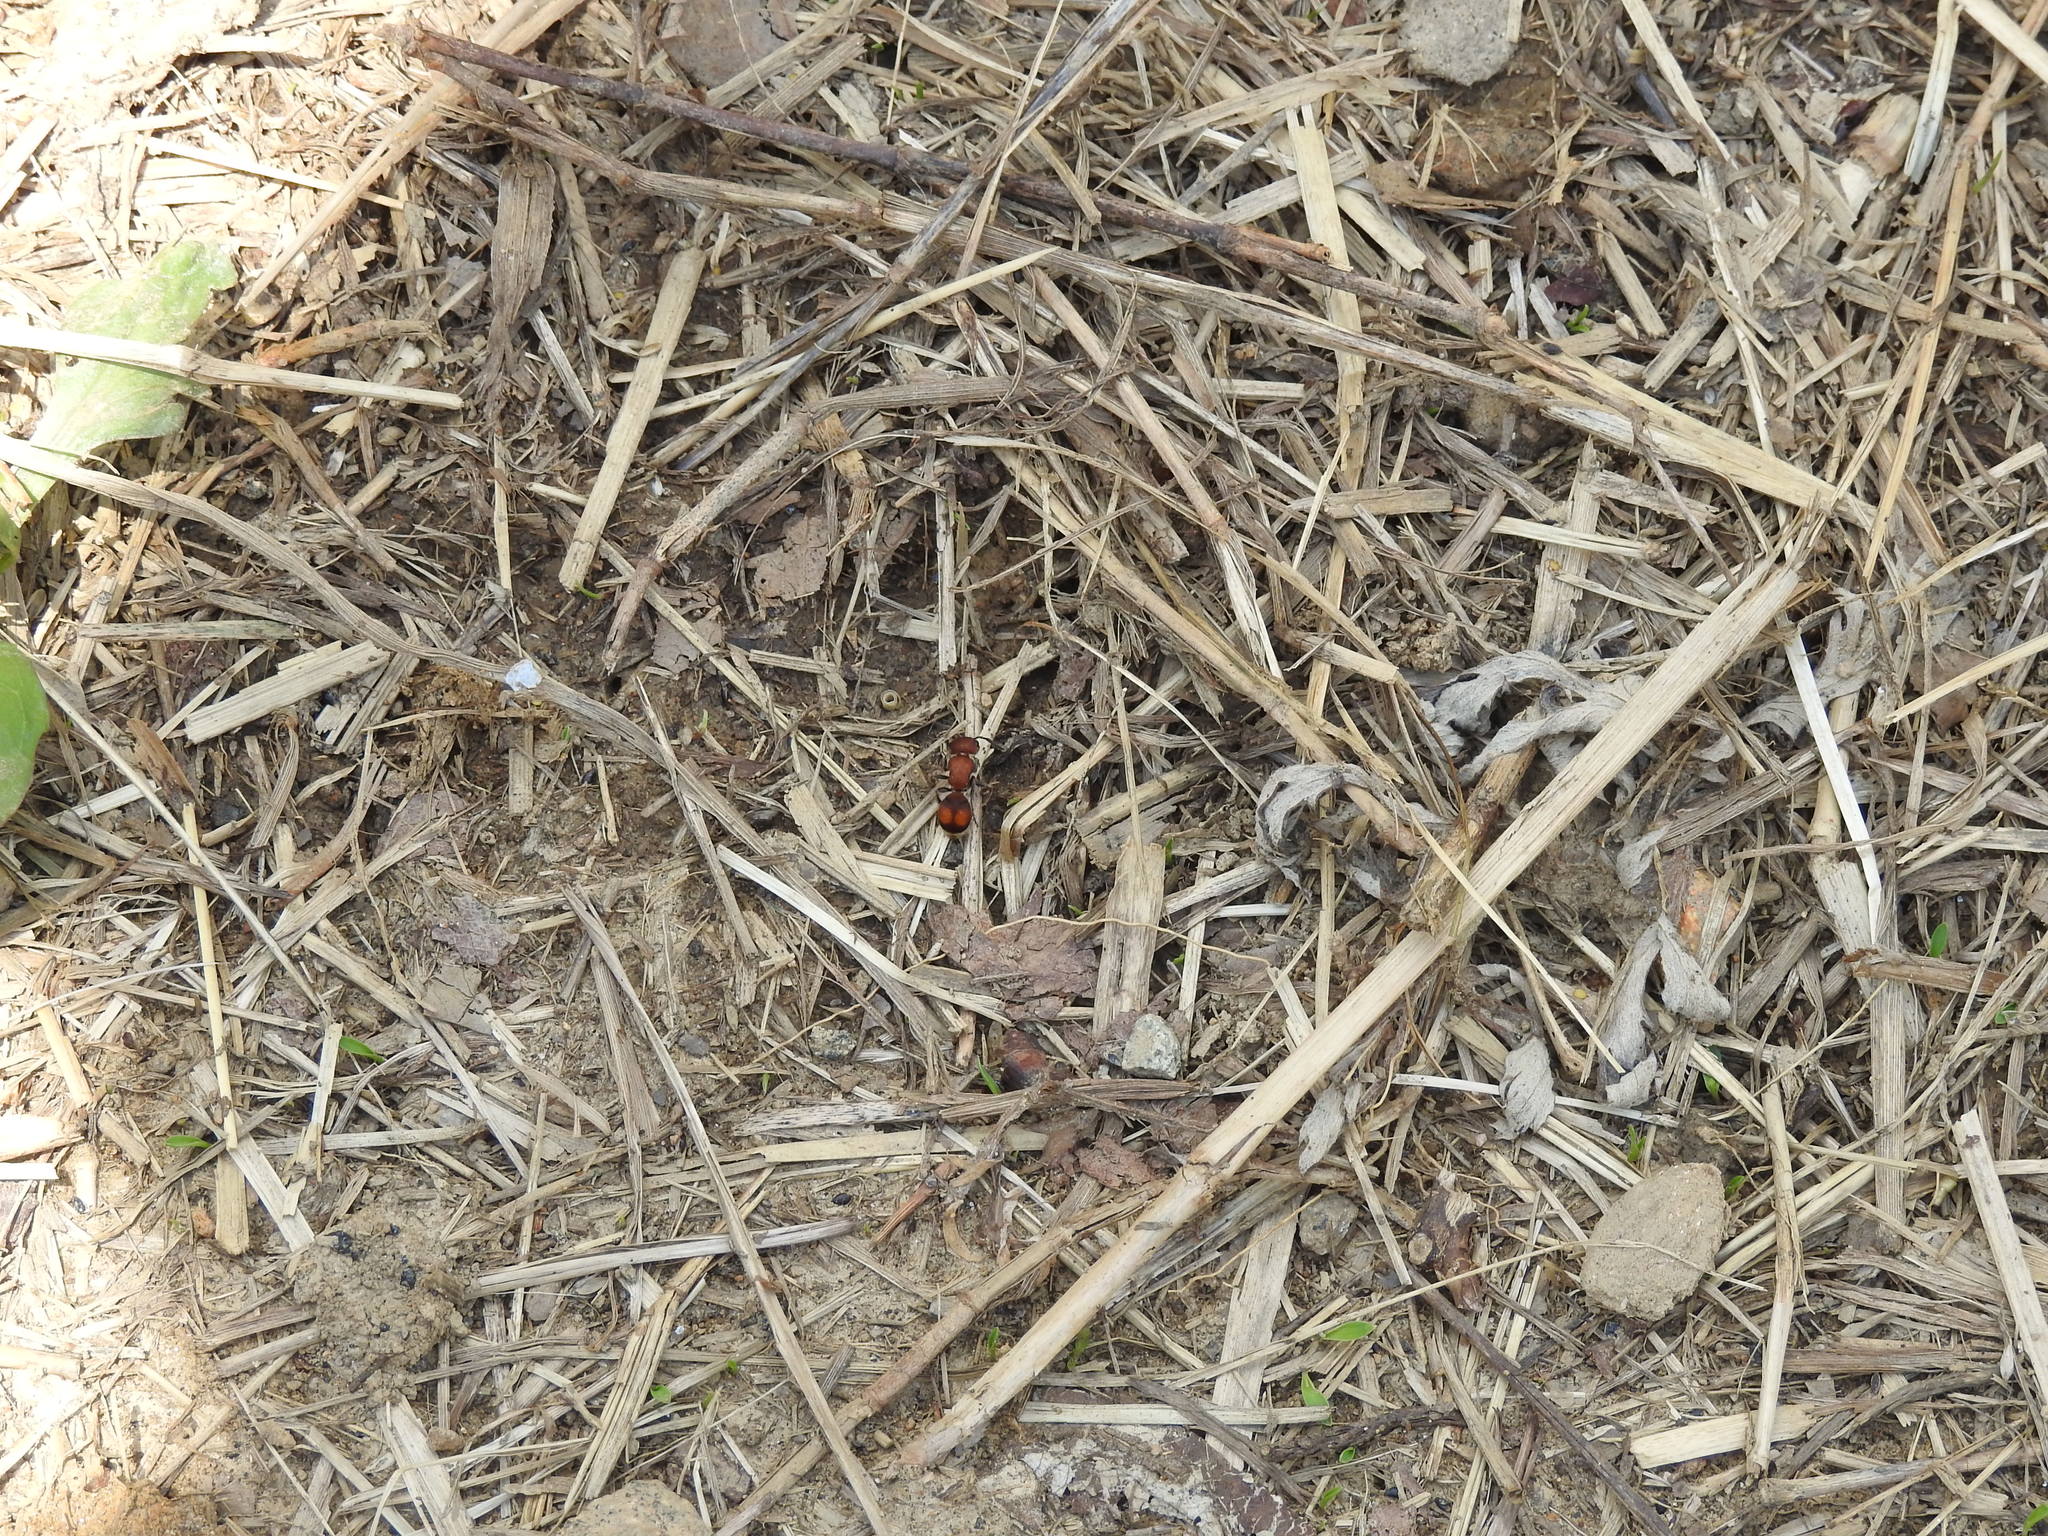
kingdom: Animalia
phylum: Arthropoda
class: Insecta
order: Hymenoptera
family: Mutillidae
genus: Pseudomethoca
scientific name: Pseudomethoca
